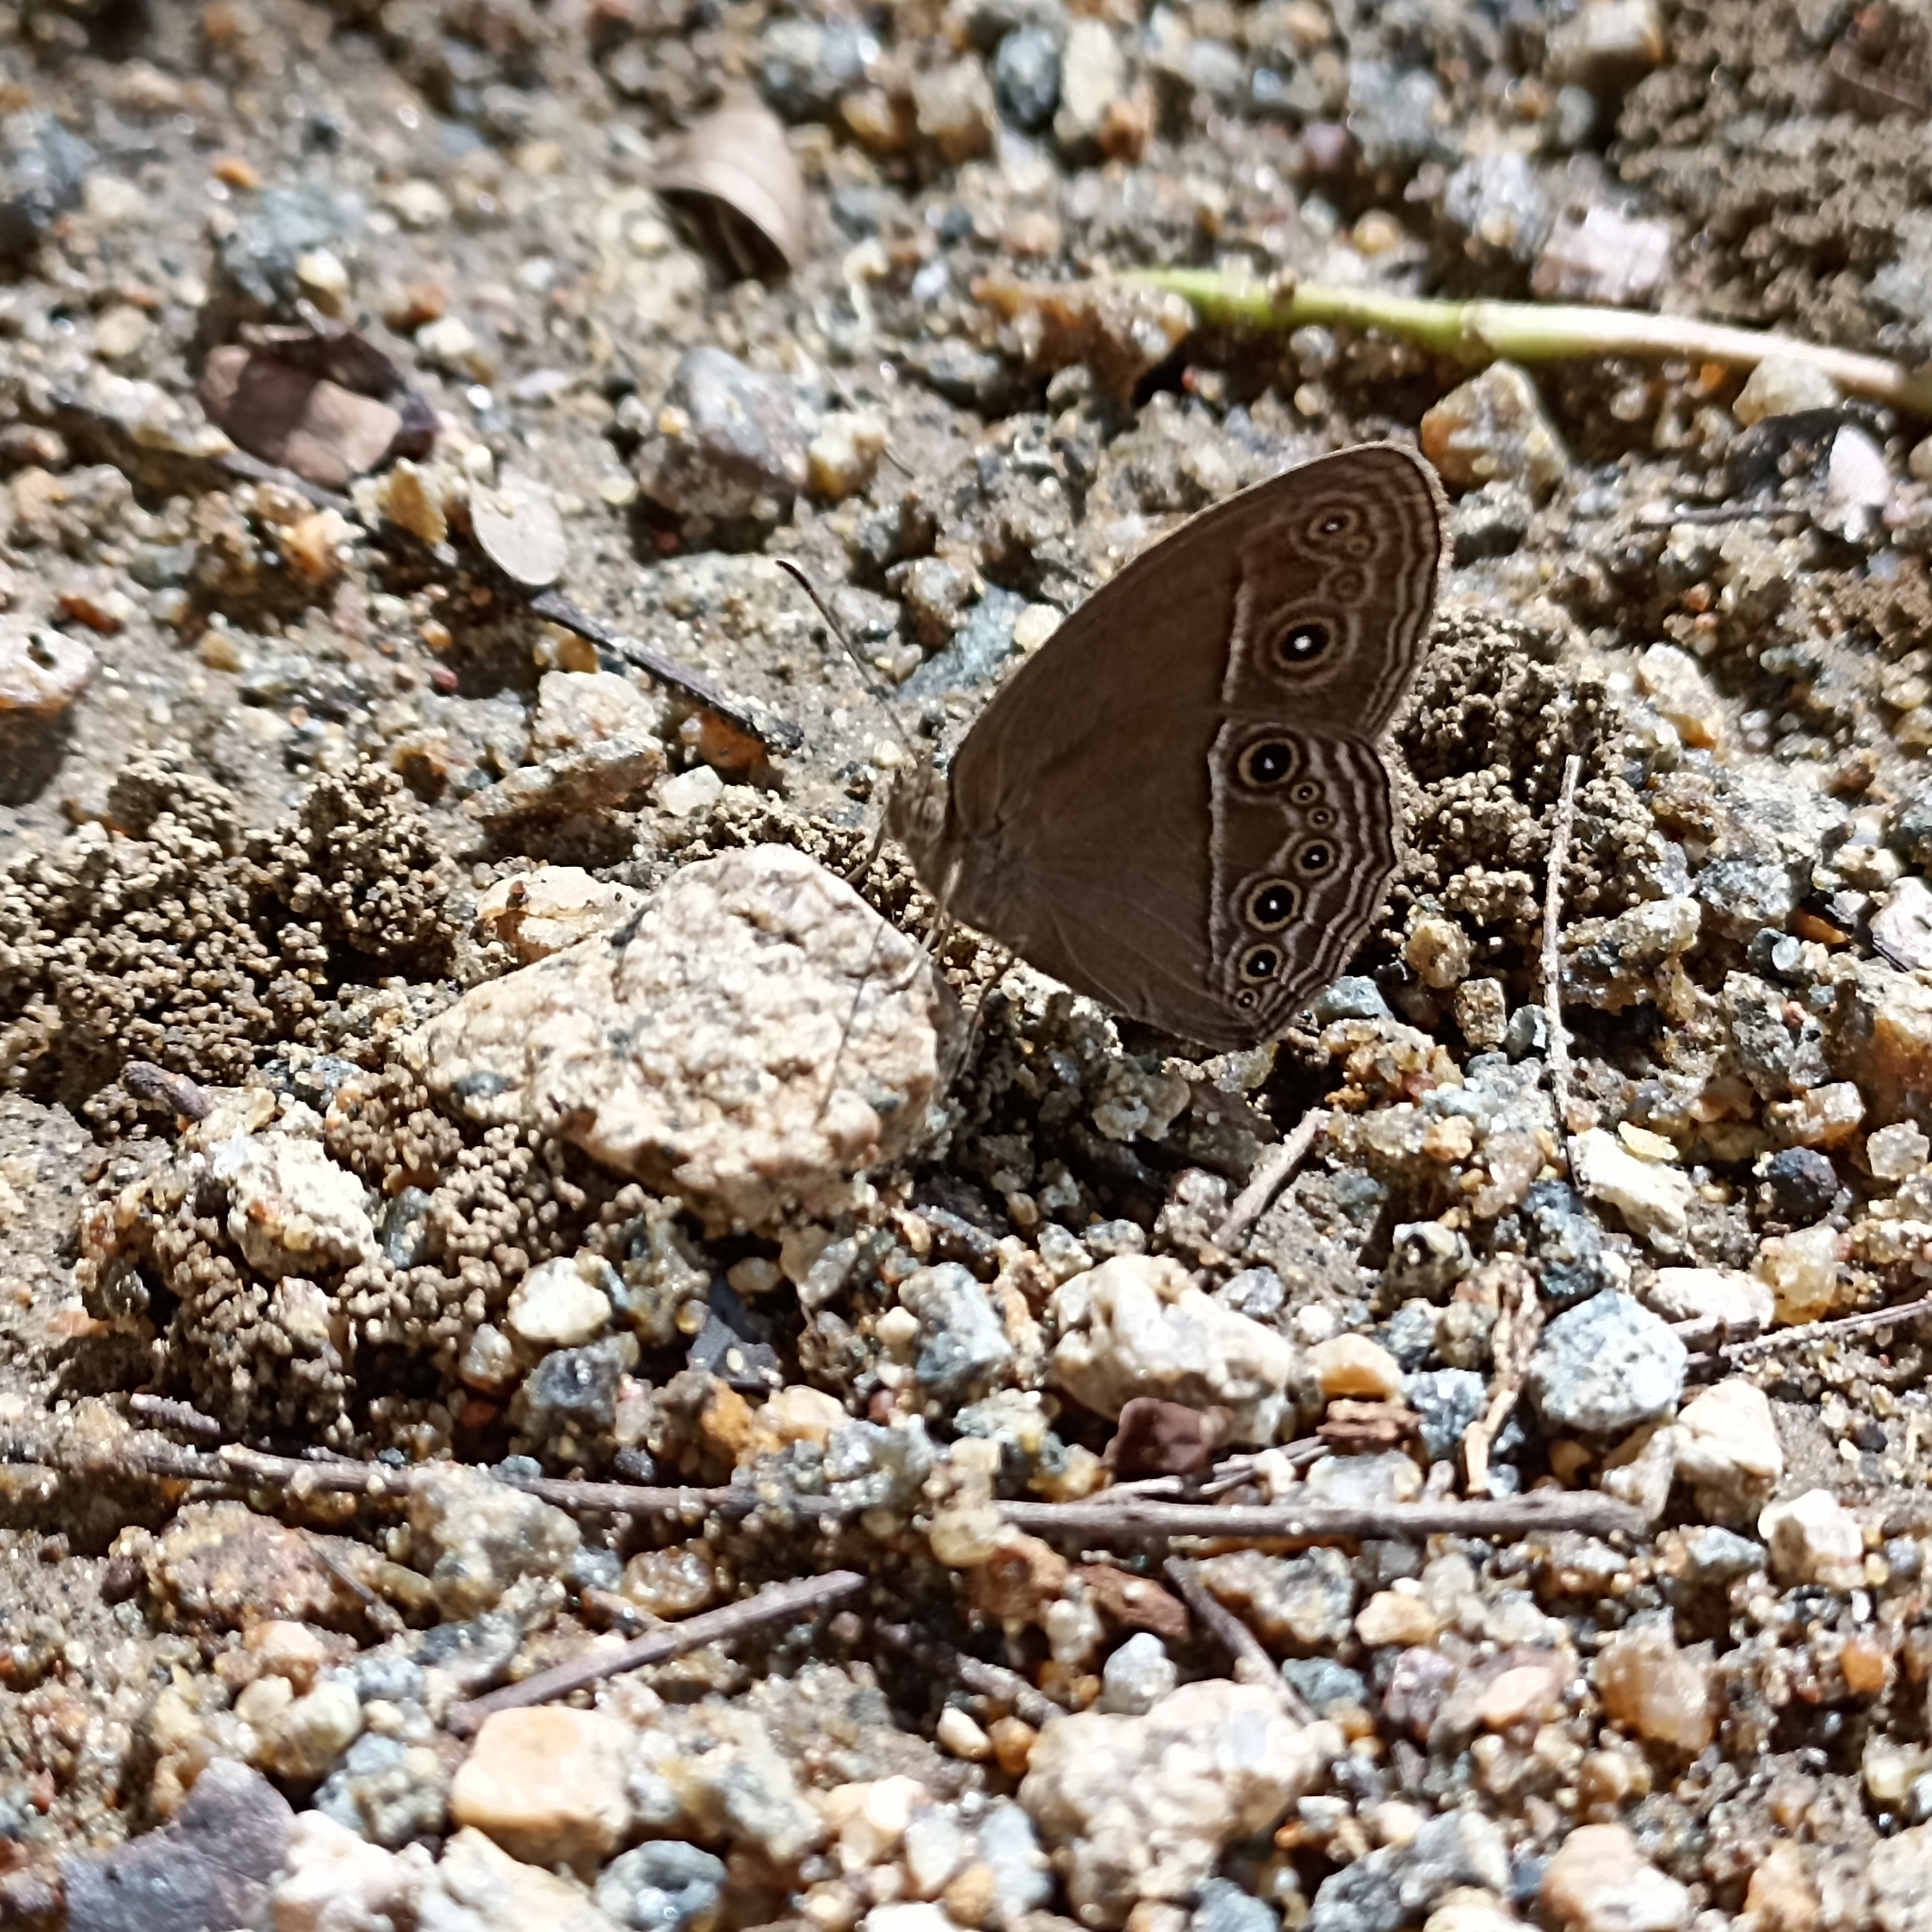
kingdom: Animalia
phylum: Arthropoda
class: Insecta
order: Lepidoptera
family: Nymphalidae
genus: Mycalesis
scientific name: Mycalesis perseus
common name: Dingy bushbrown
